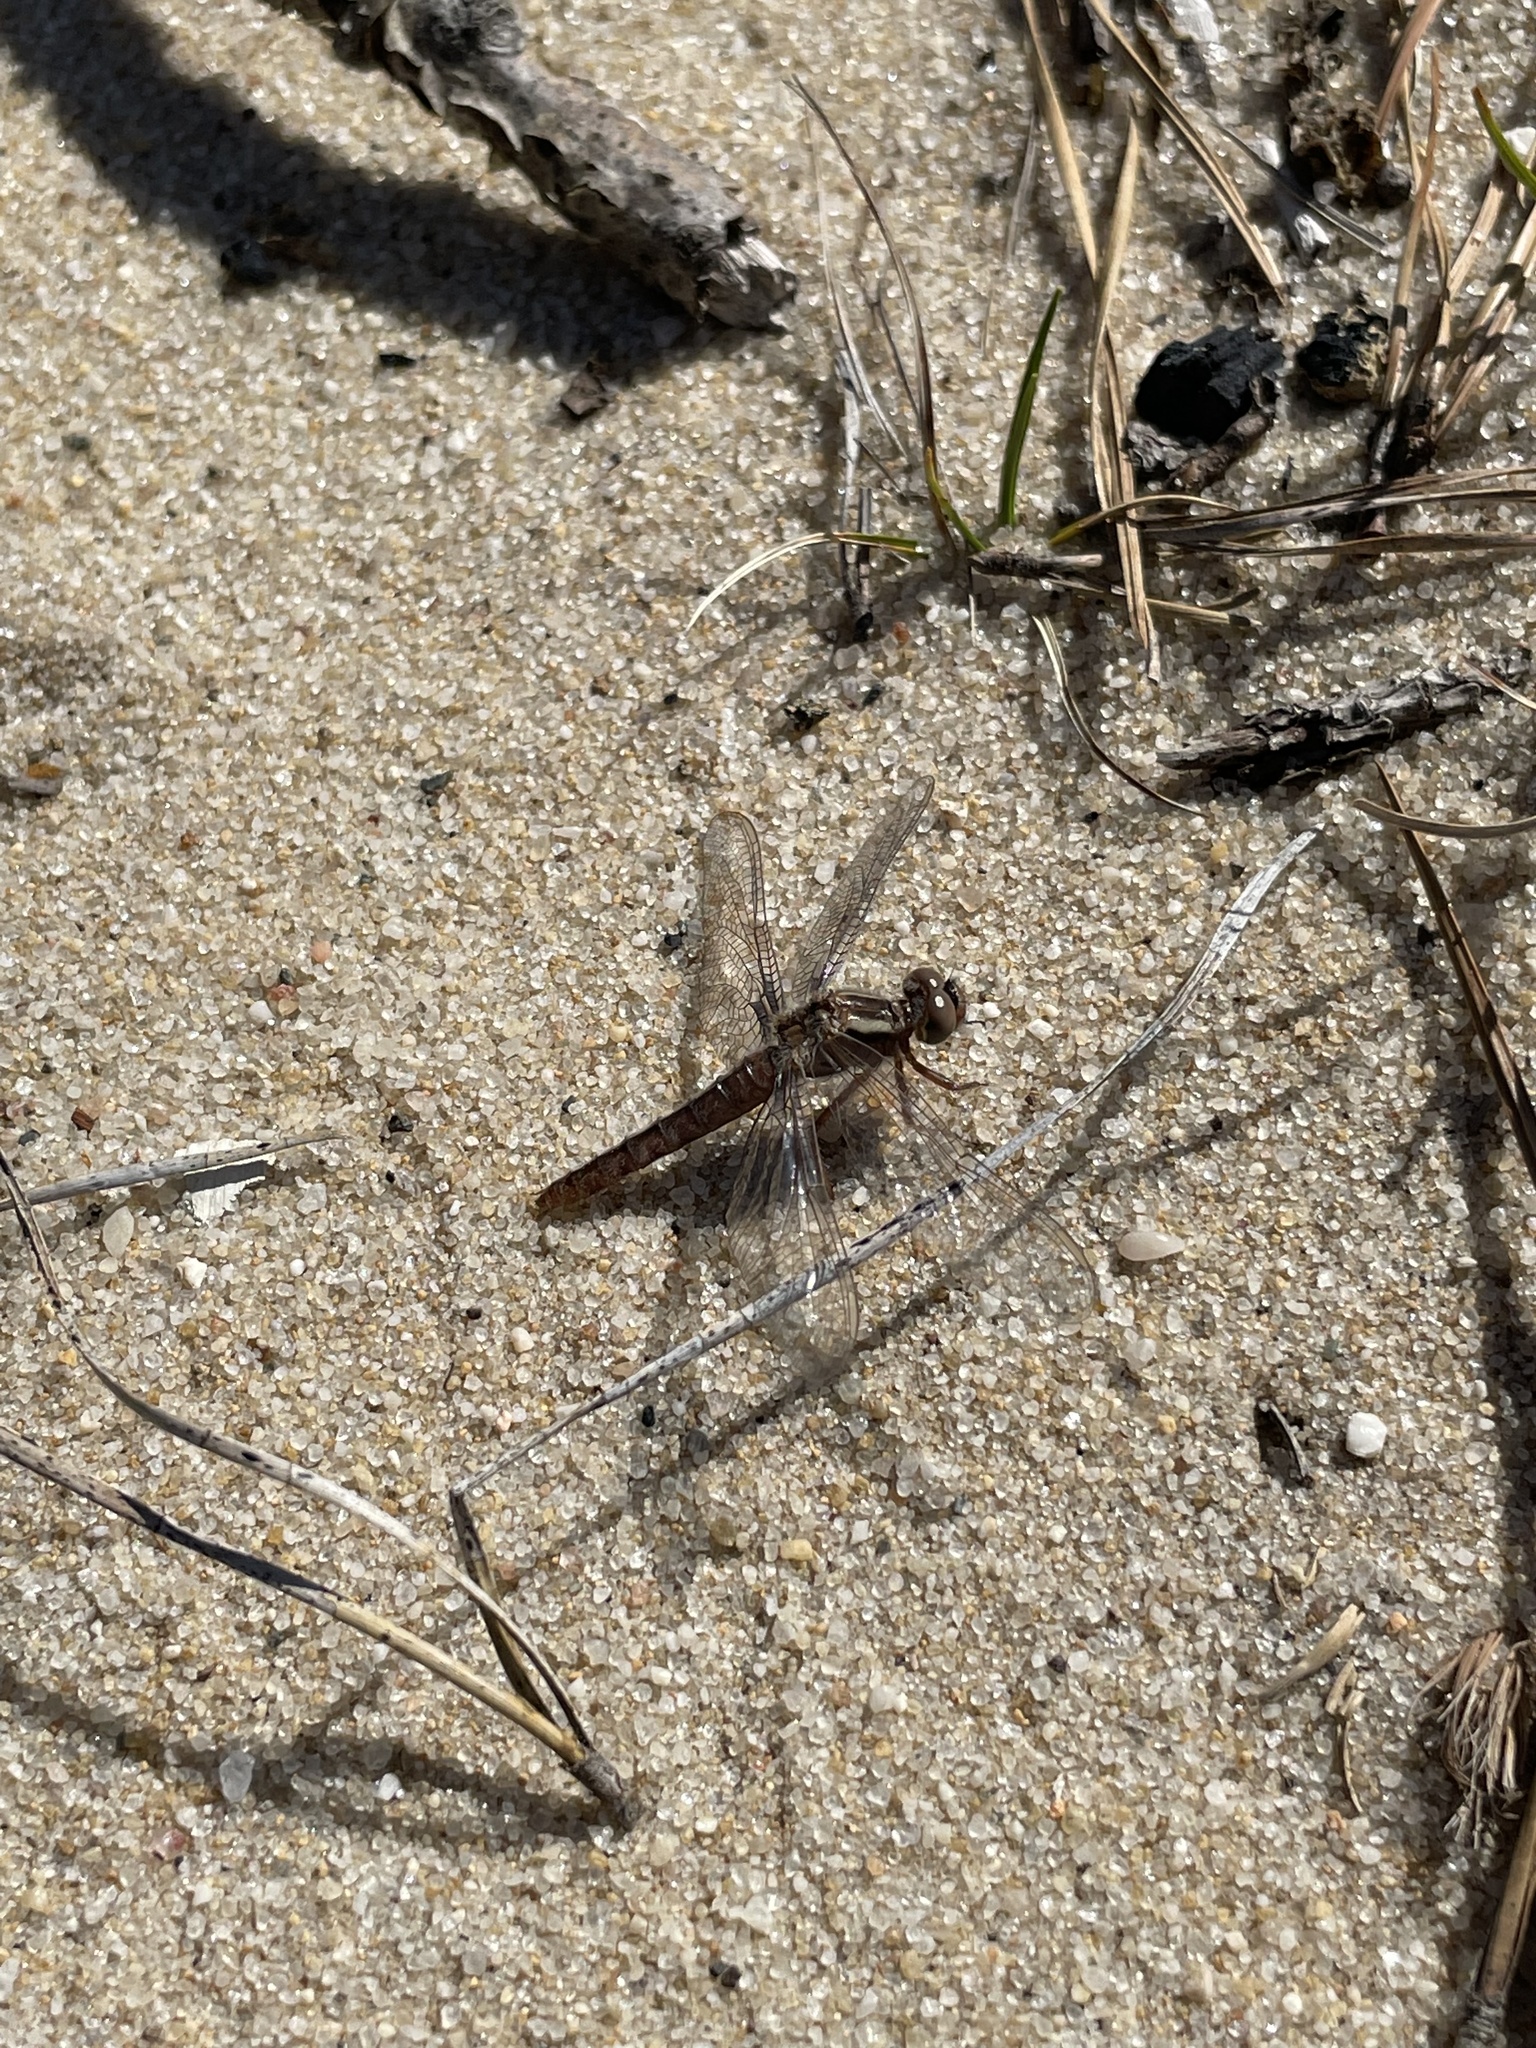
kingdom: Animalia
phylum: Arthropoda
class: Insecta
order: Odonata
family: Libellulidae
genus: Ladona
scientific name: Ladona deplanata
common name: Blue corporal
